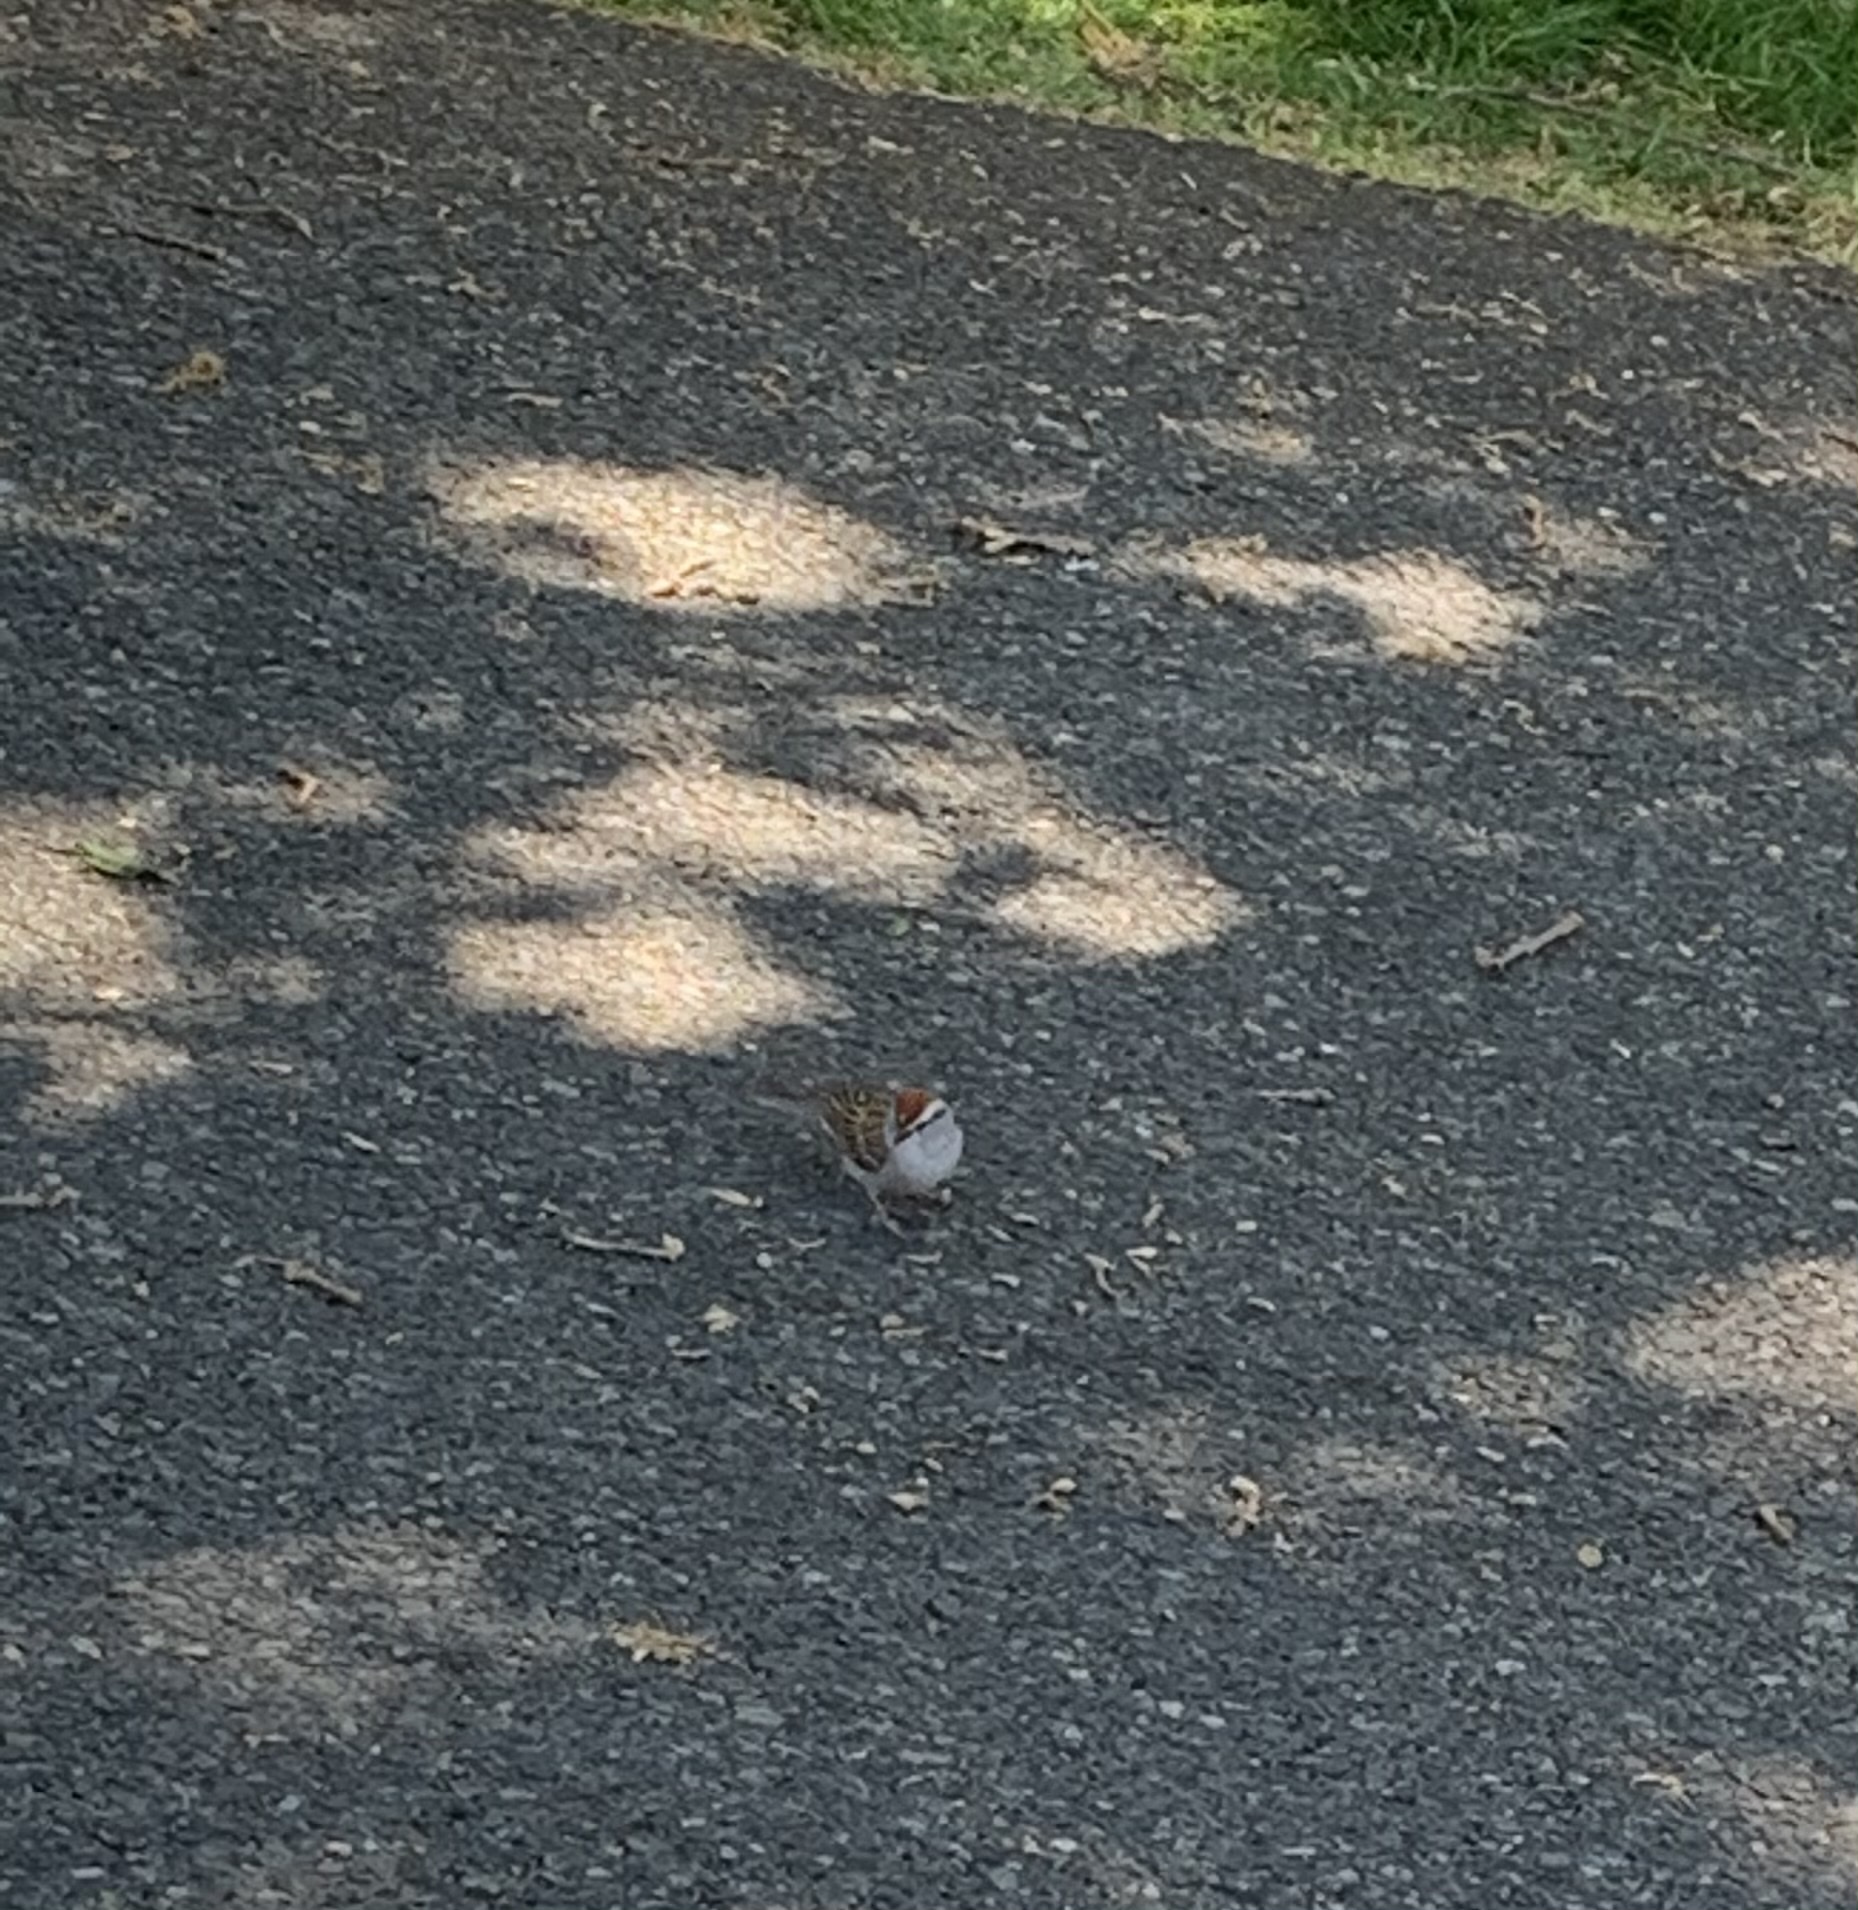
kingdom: Animalia
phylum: Chordata
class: Aves
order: Passeriformes
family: Passerellidae
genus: Spizella
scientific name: Spizella passerina
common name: Chipping sparrow
